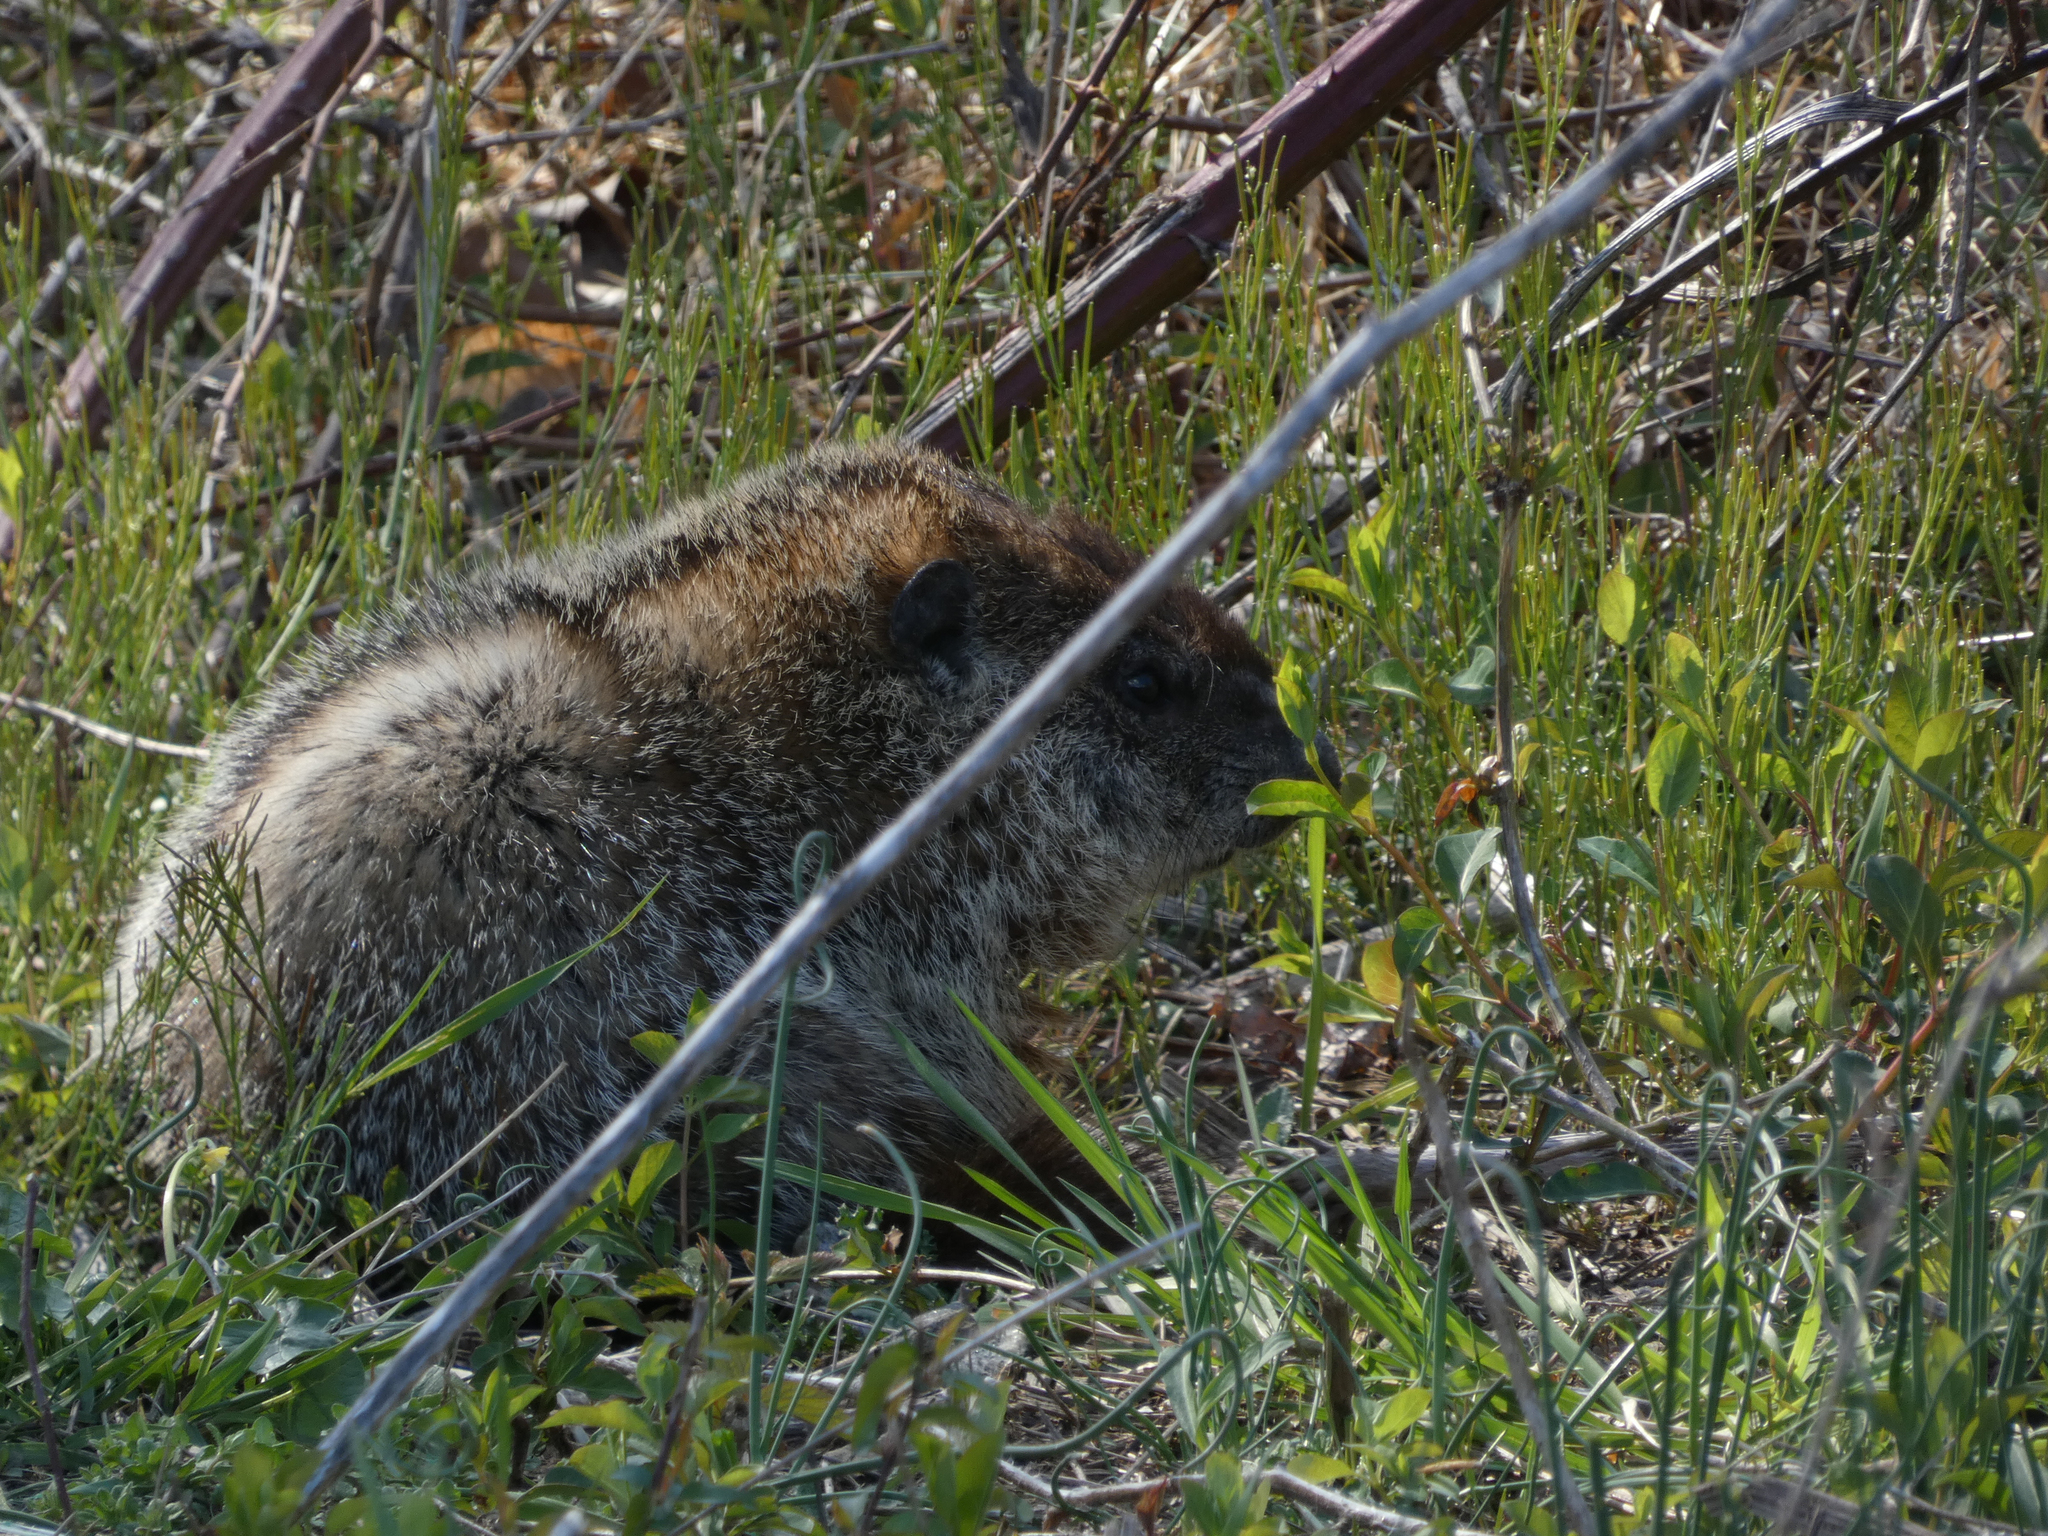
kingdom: Animalia
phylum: Chordata
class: Mammalia
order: Rodentia
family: Sciuridae
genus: Marmota
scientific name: Marmota monax
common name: Groundhog
